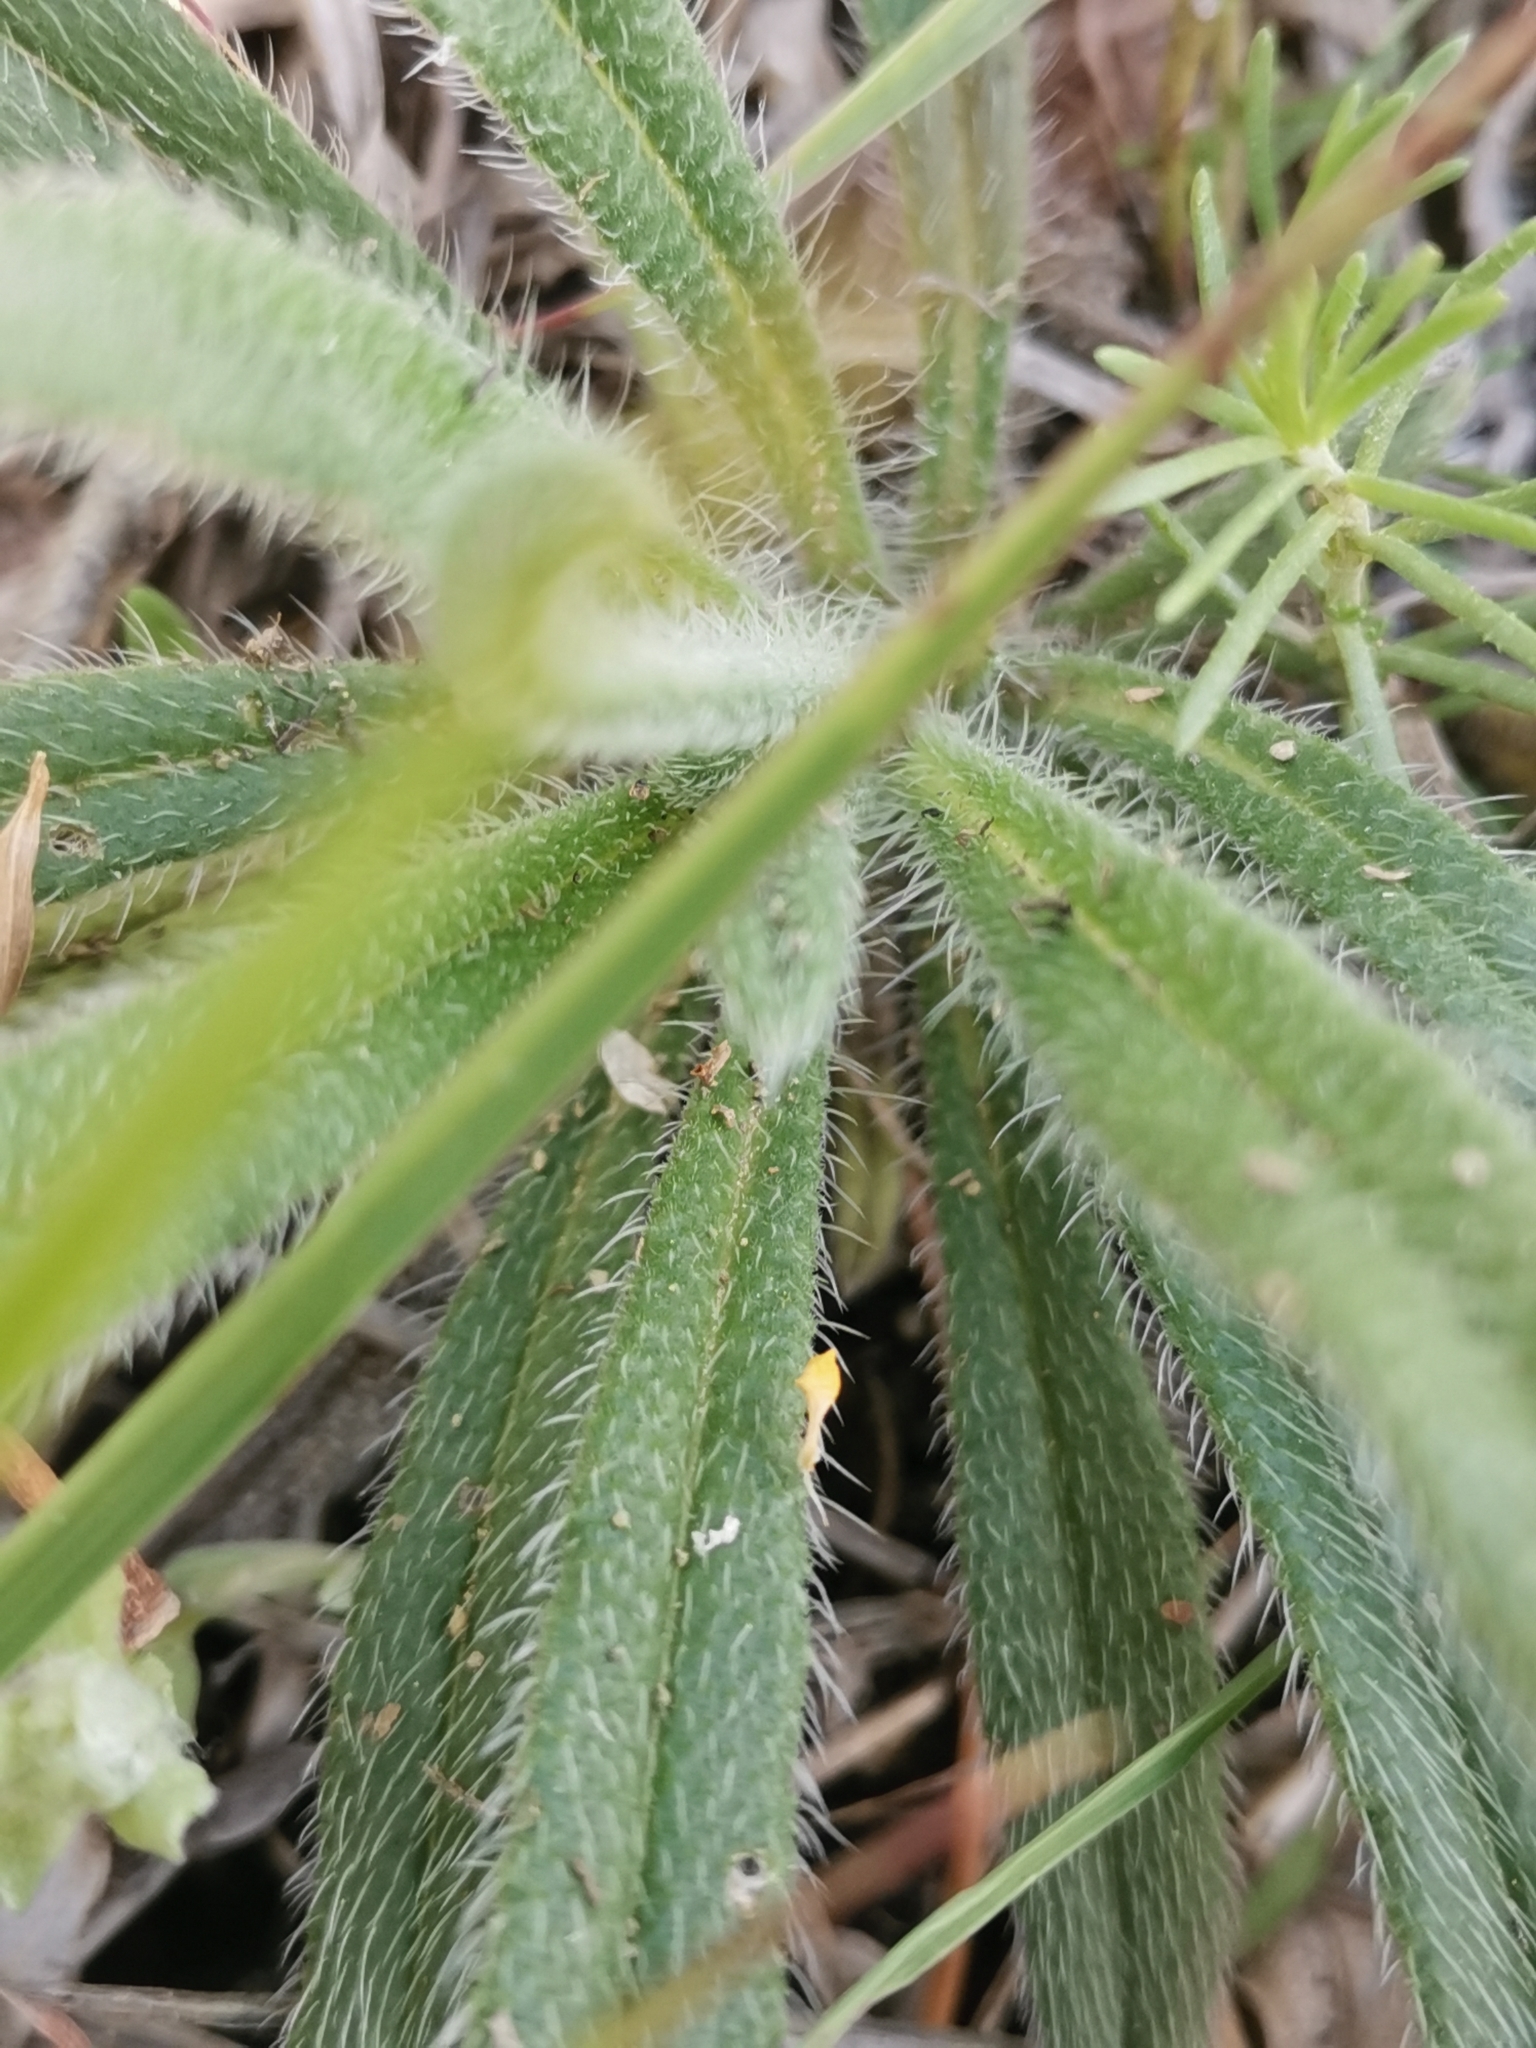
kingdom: Plantae
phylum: Tracheophyta
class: Magnoliopsida
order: Boraginales
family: Boraginaceae
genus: Onosma
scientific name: Onosma pseudoarenaria
